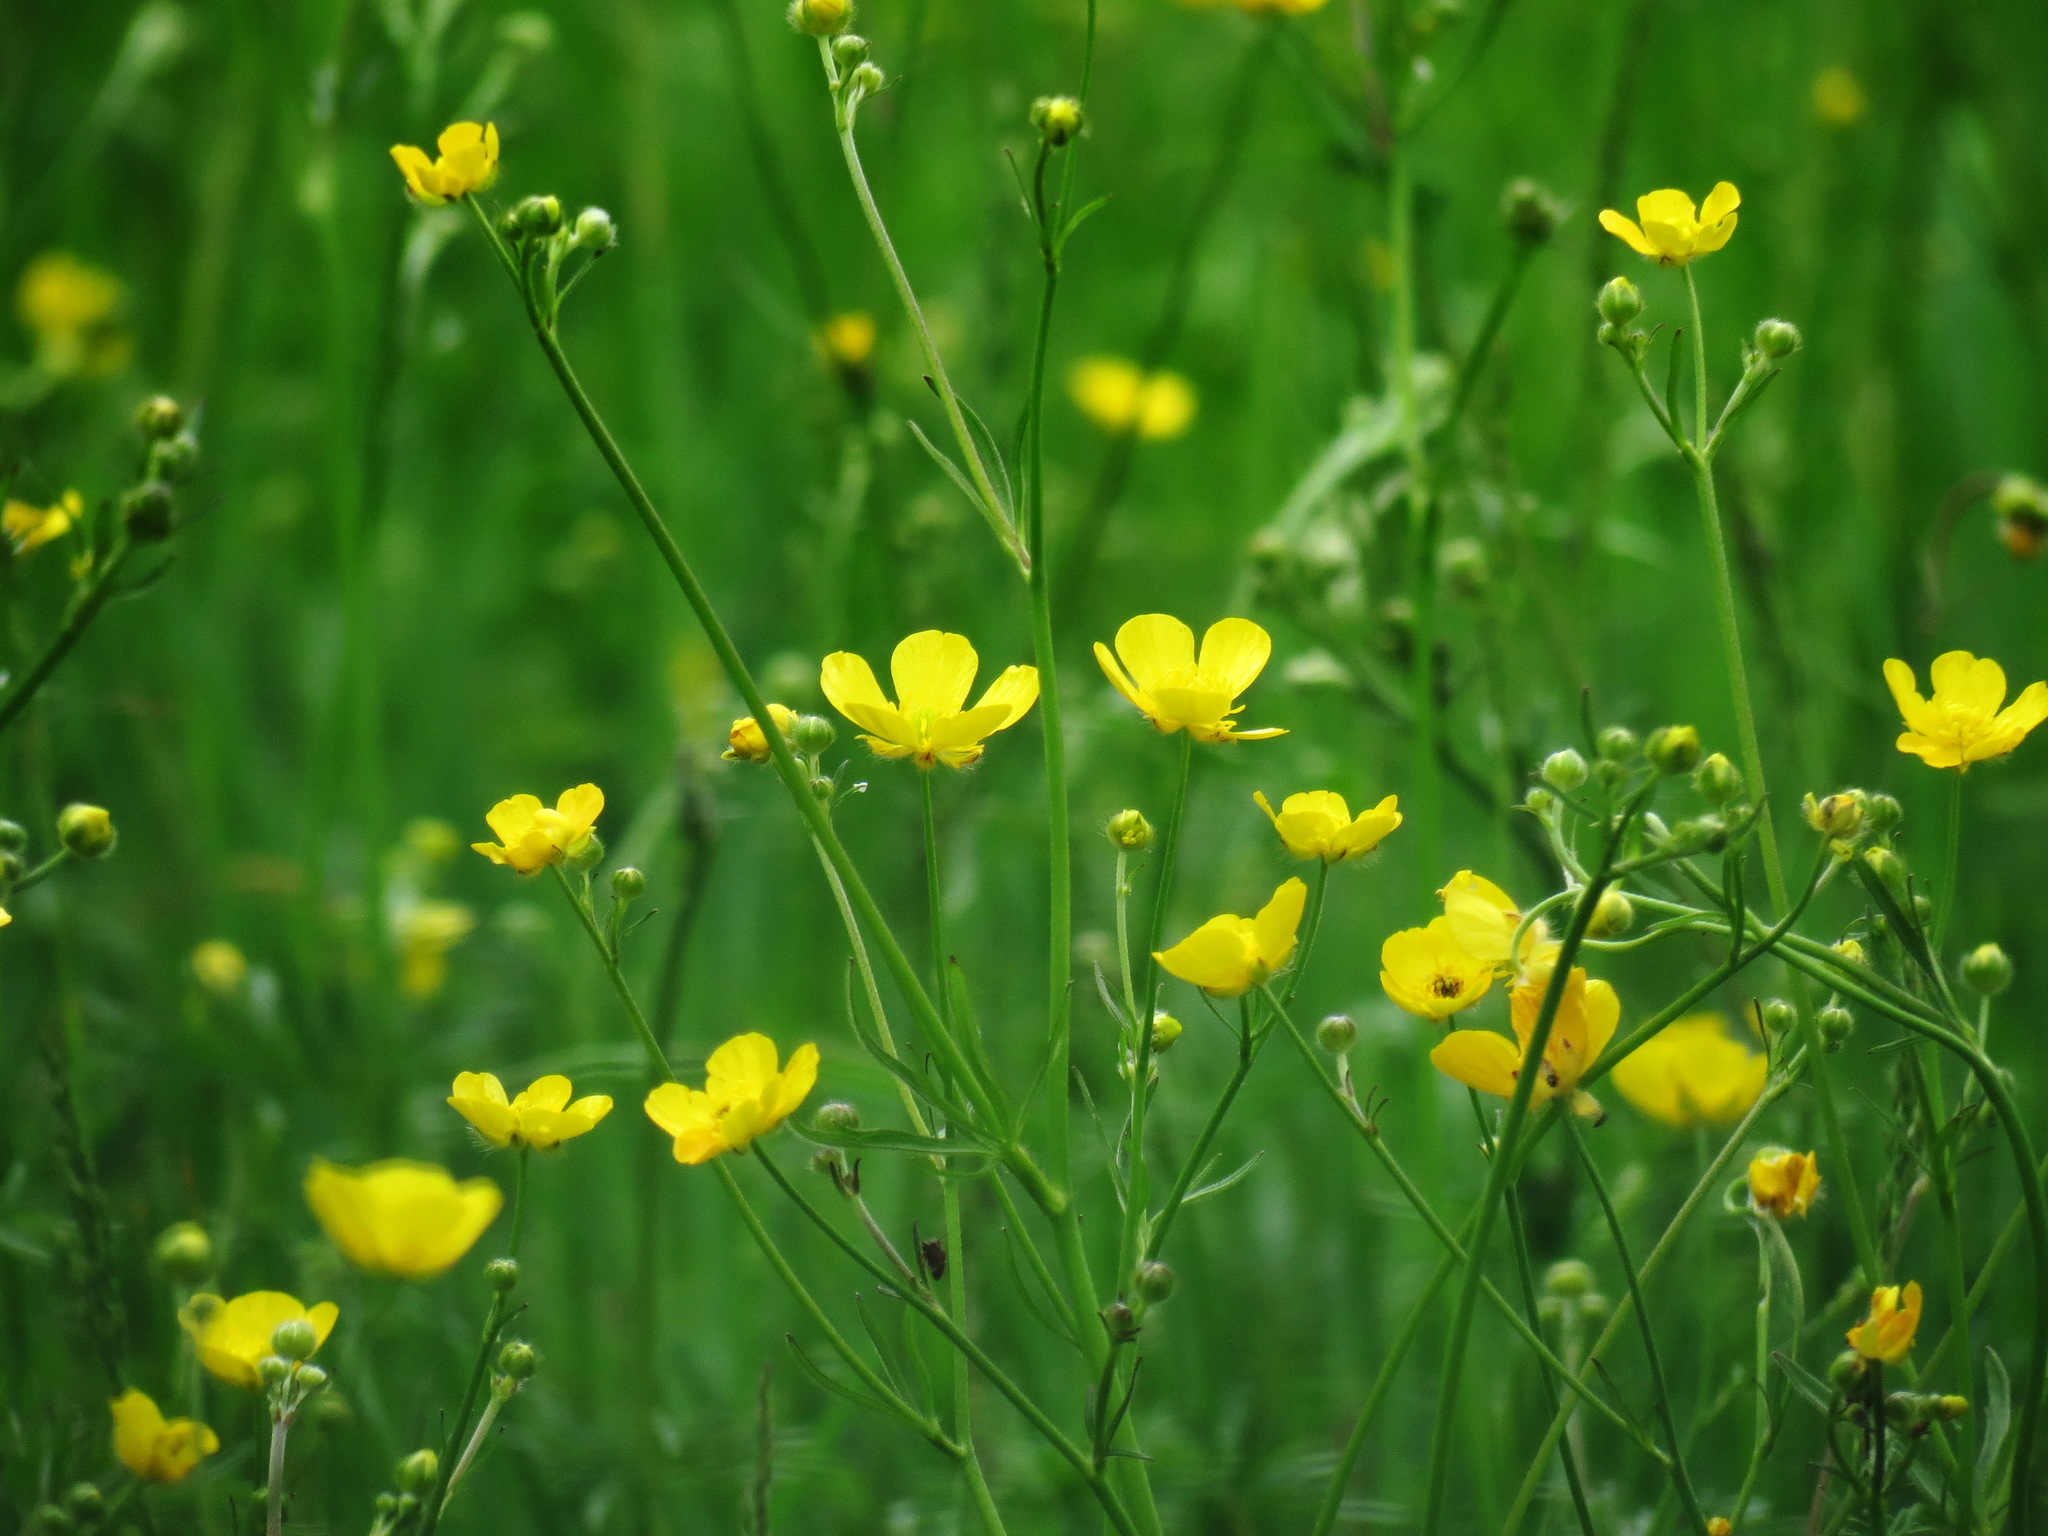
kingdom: Plantae
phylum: Tracheophyta
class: Magnoliopsida
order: Ranunculales
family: Ranunculaceae
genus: Ranunculus
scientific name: Ranunculus acris
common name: Meadow buttercup
